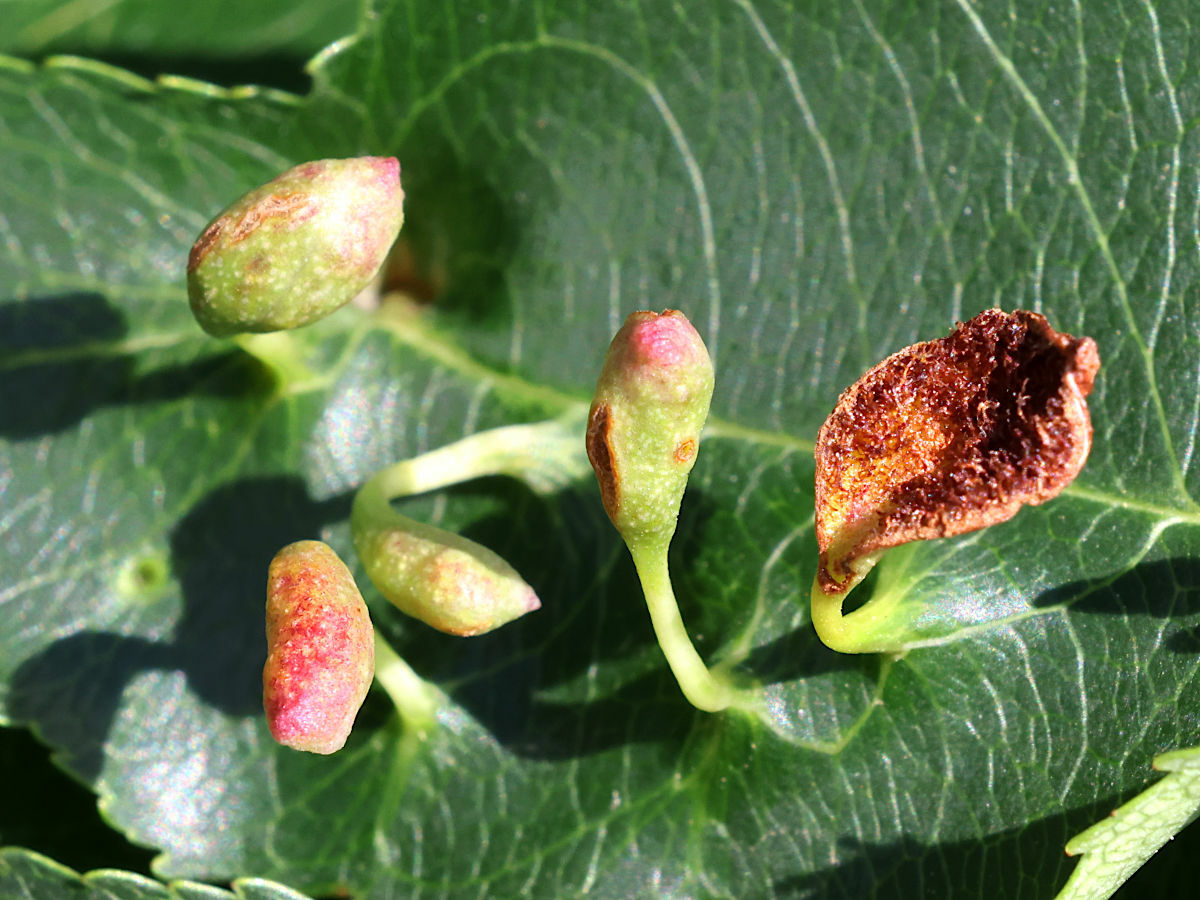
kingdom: Animalia
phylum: Arthropoda
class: Arachnida
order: Trombidiformes
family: Eriophyidae
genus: Eriophyes
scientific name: Eriophyes
